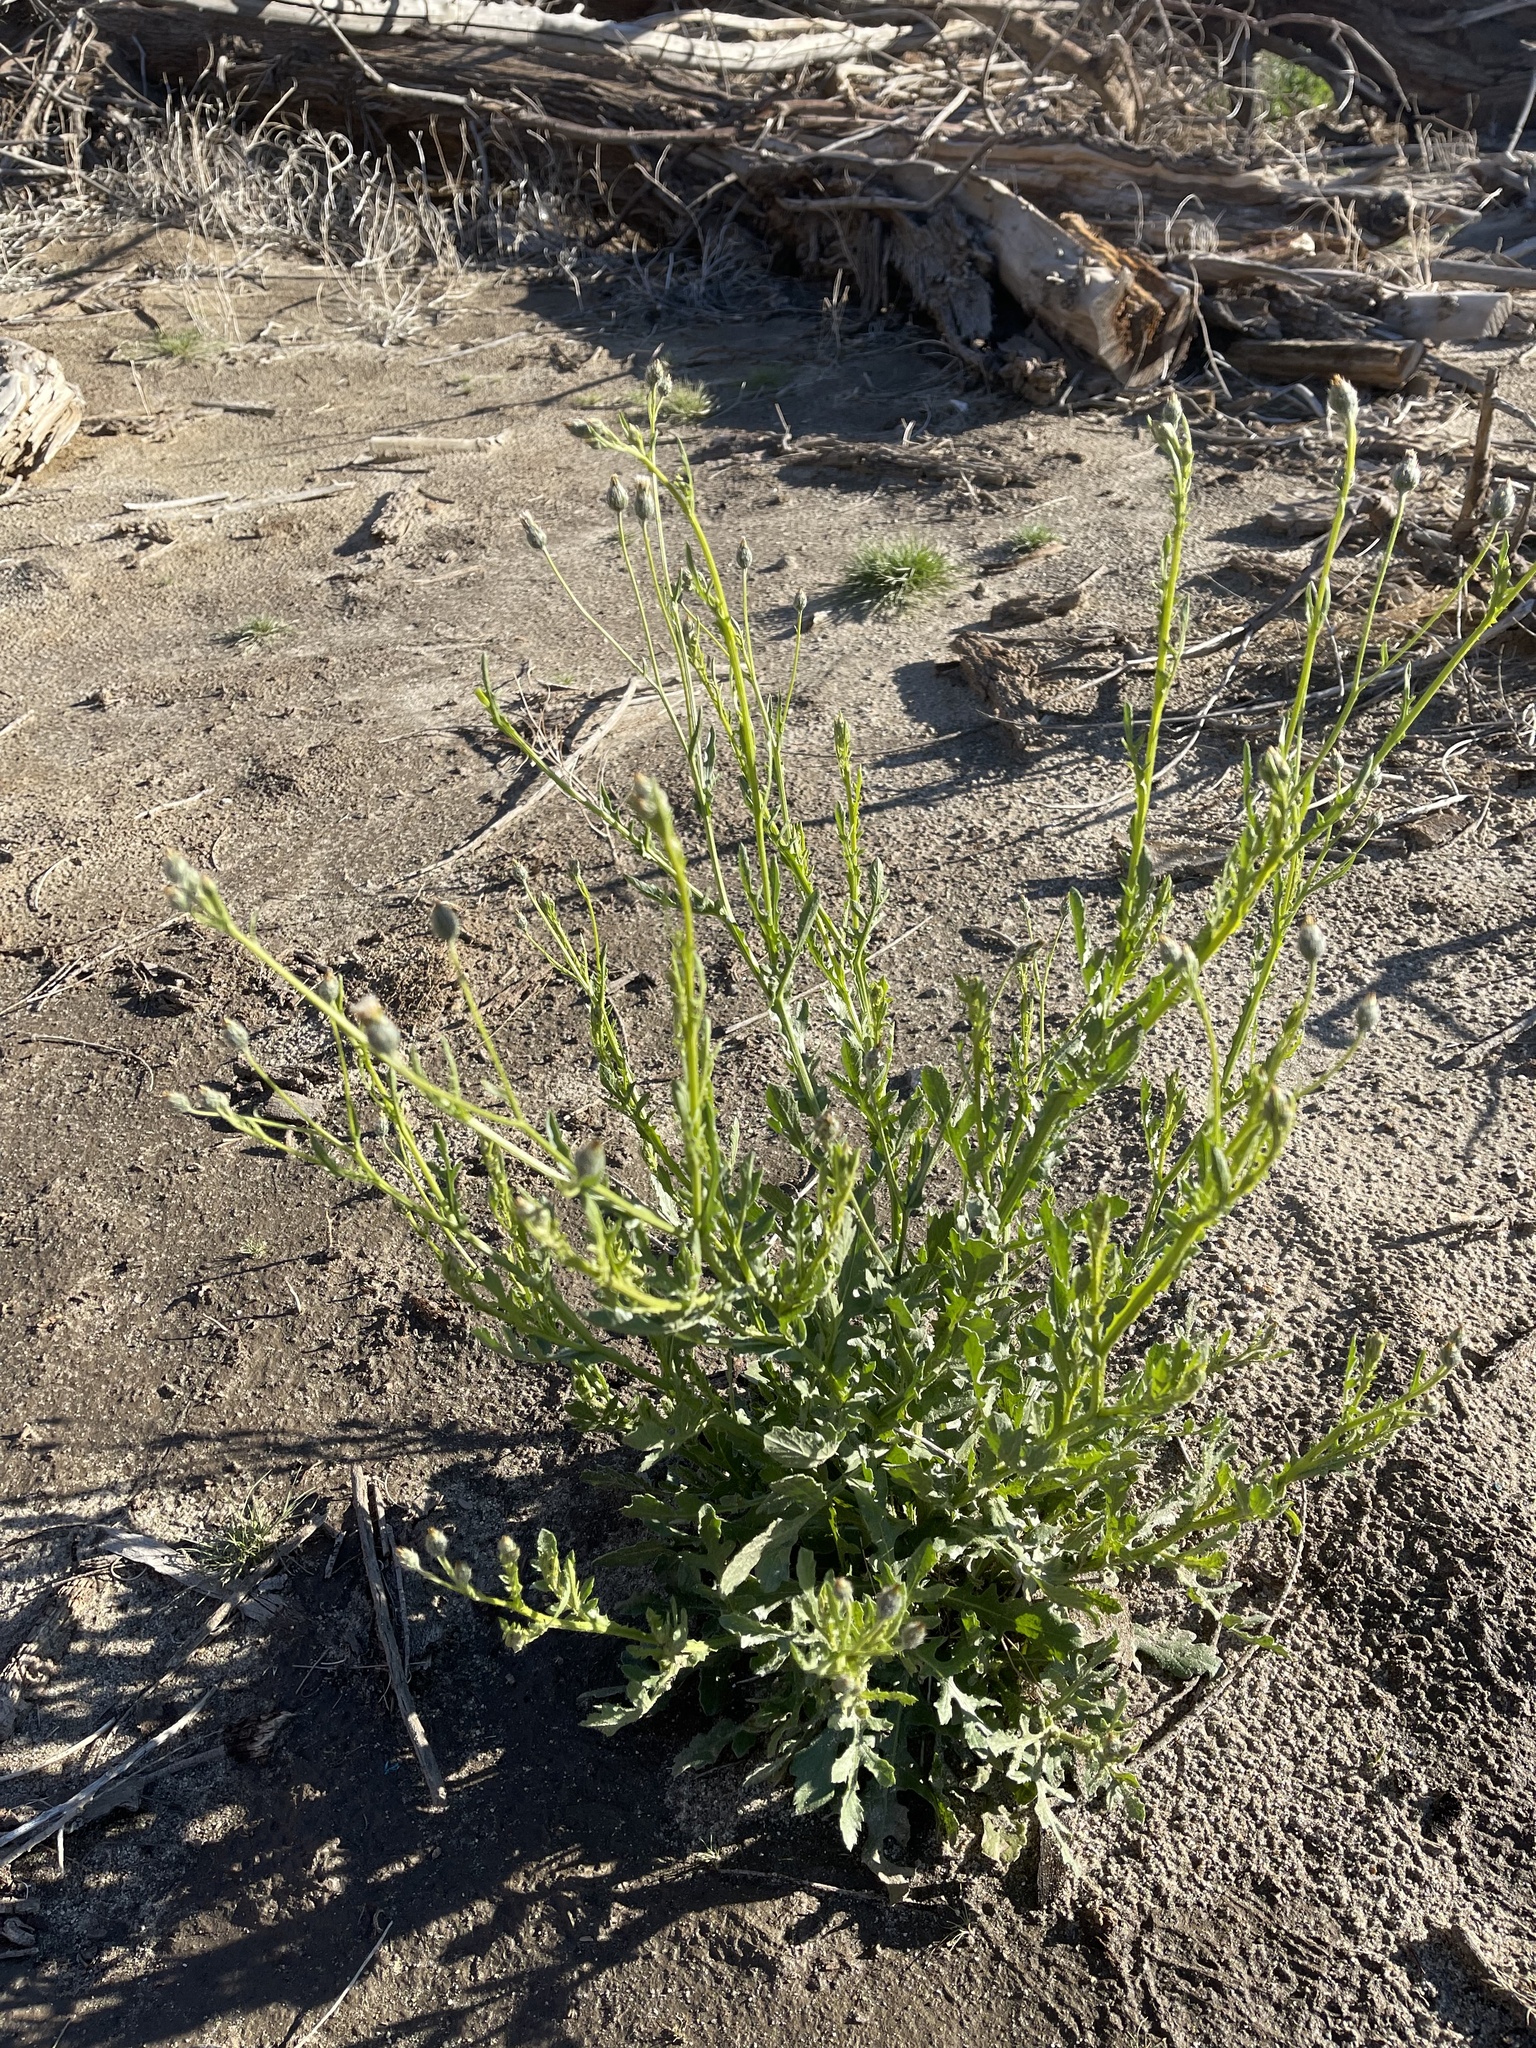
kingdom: Plantae
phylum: Tracheophyta
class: Magnoliopsida
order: Asterales
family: Asteraceae
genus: Volutaria
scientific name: Volutaria tubuliflora
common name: Desert knapweed
